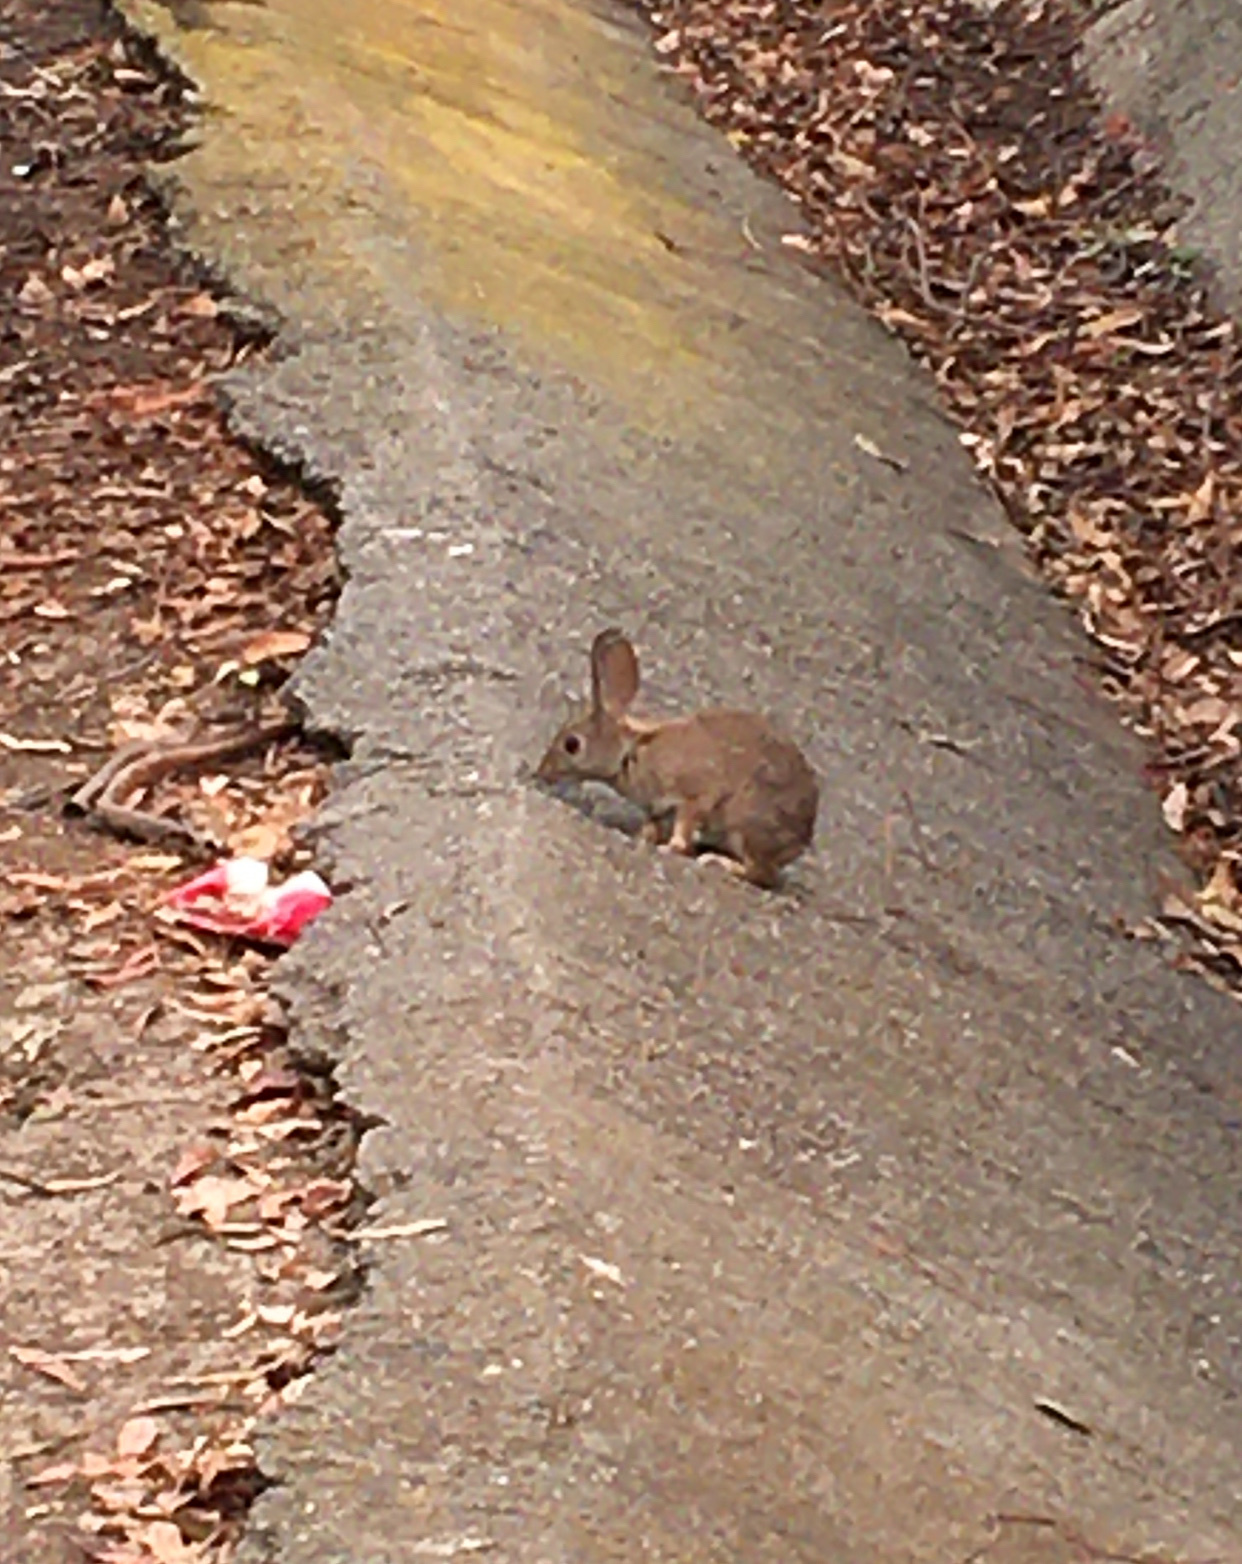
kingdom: Animalia
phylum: Chordata
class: Mammalia
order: Lagomorpha
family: Leporidae
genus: Sylvilagus
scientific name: Sylvilagus audubonii
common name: Desert cottontail
